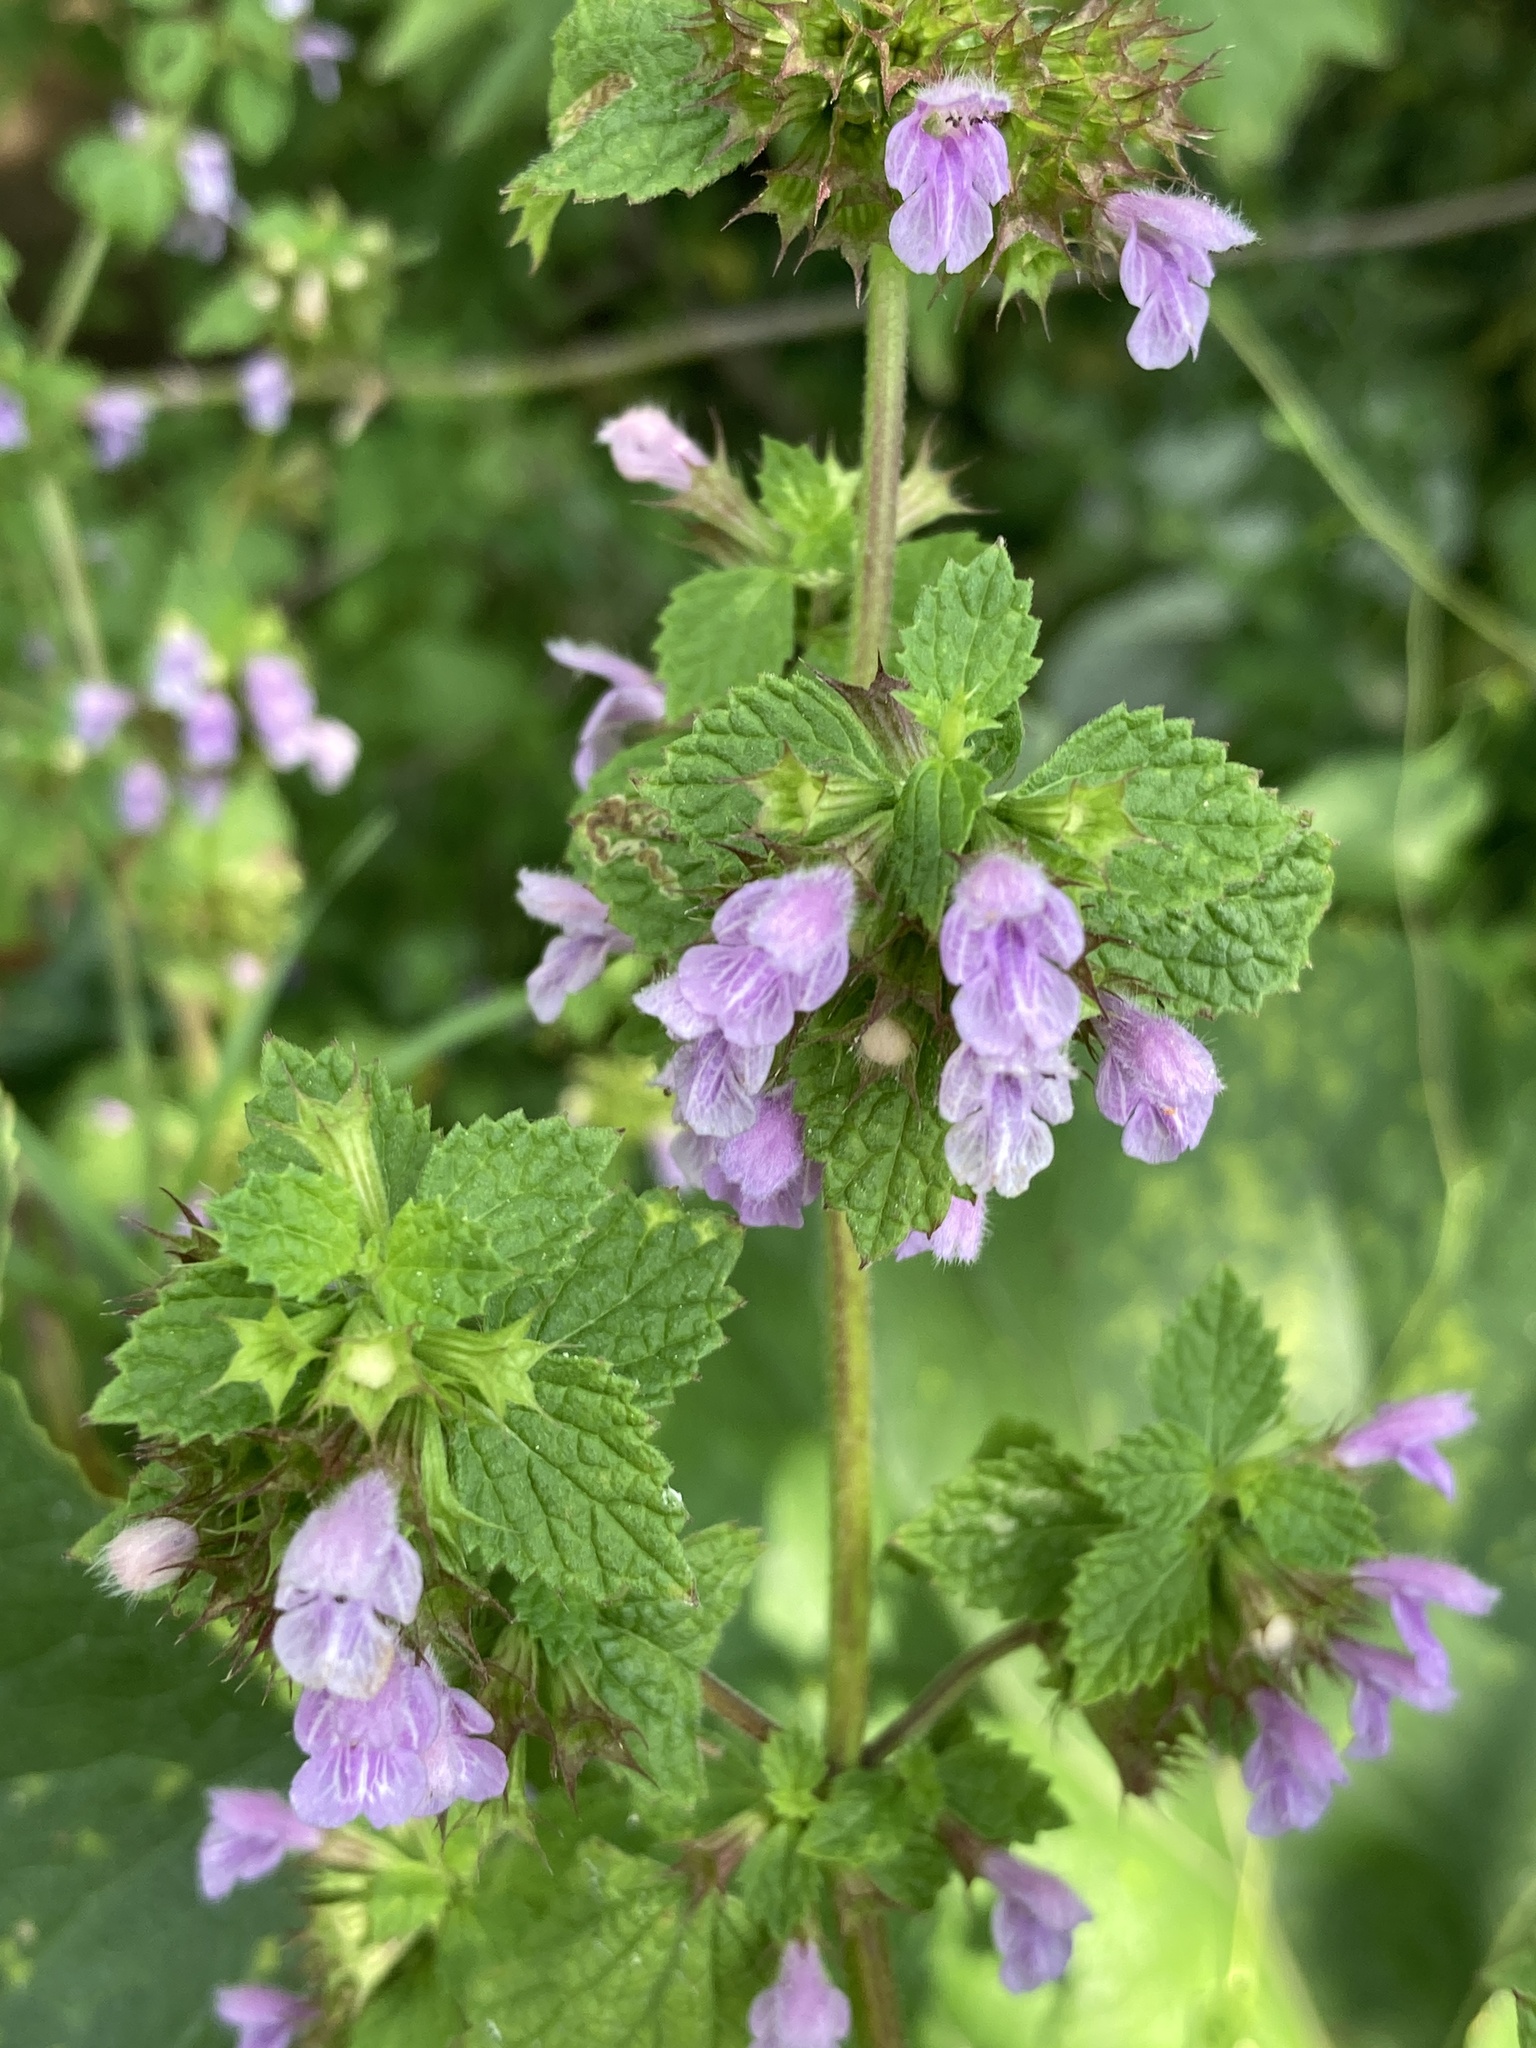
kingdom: Plantae
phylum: Tracheophyta
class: Magnoliopsida
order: Lamiales
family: Lamiaceae
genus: Ballota
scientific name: Ballota nigra
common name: Black horehound
